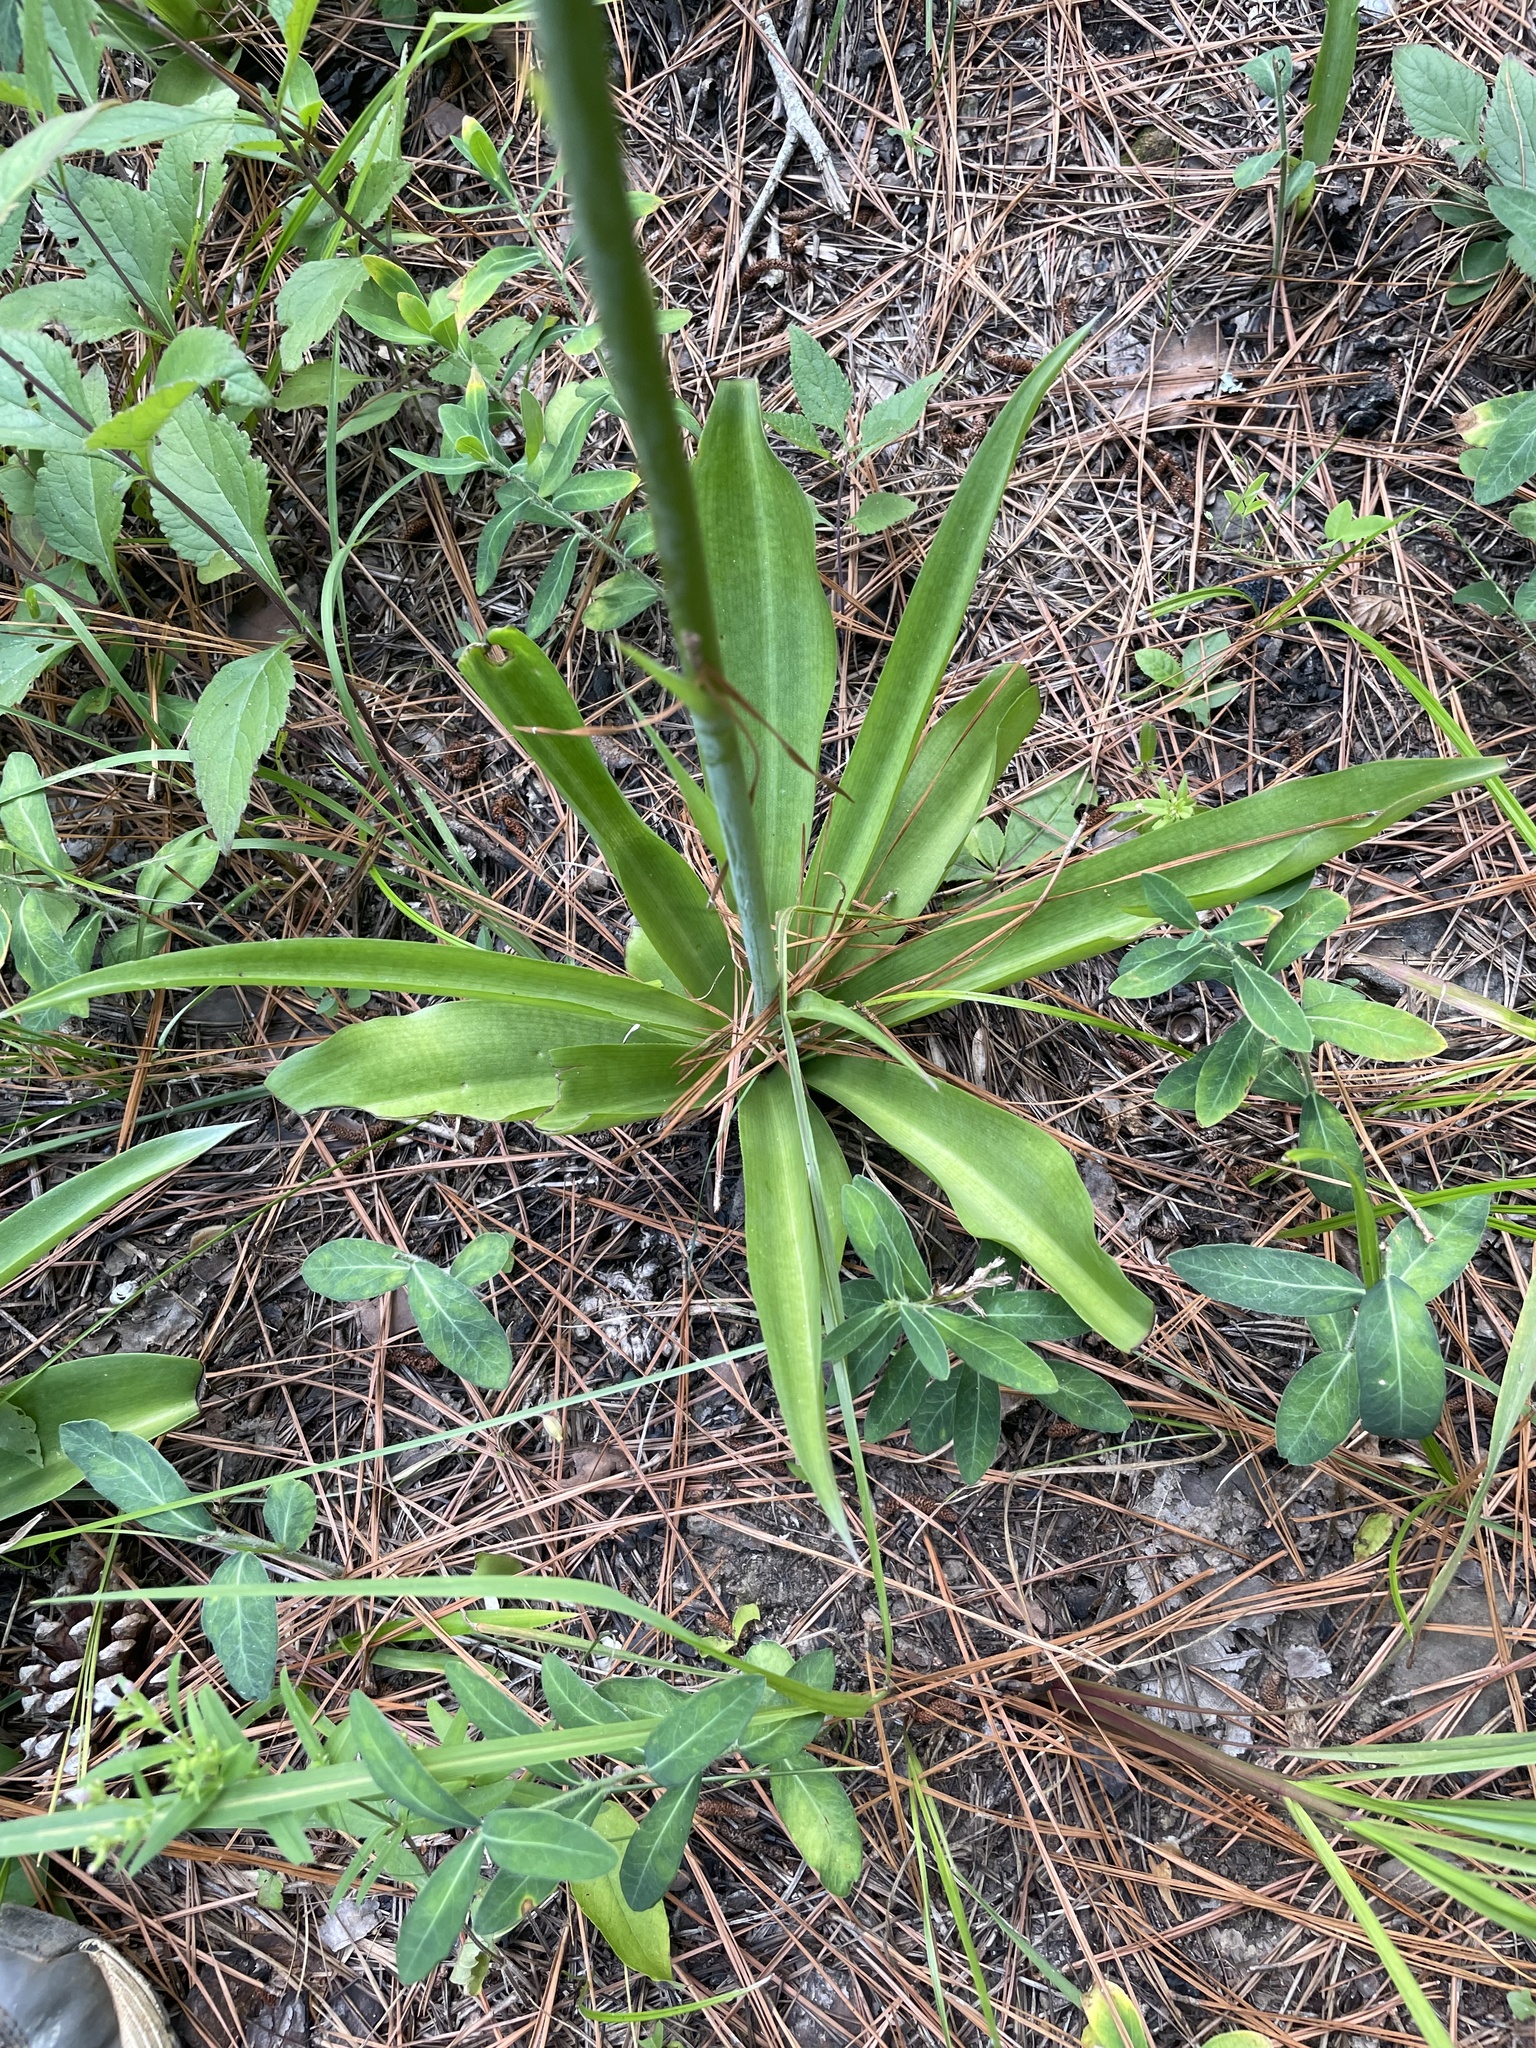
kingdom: Plantae
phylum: Tracheophyta
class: Liliopsida
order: Asparagales
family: Asparagaceae
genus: Agave
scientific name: Agave virginica
